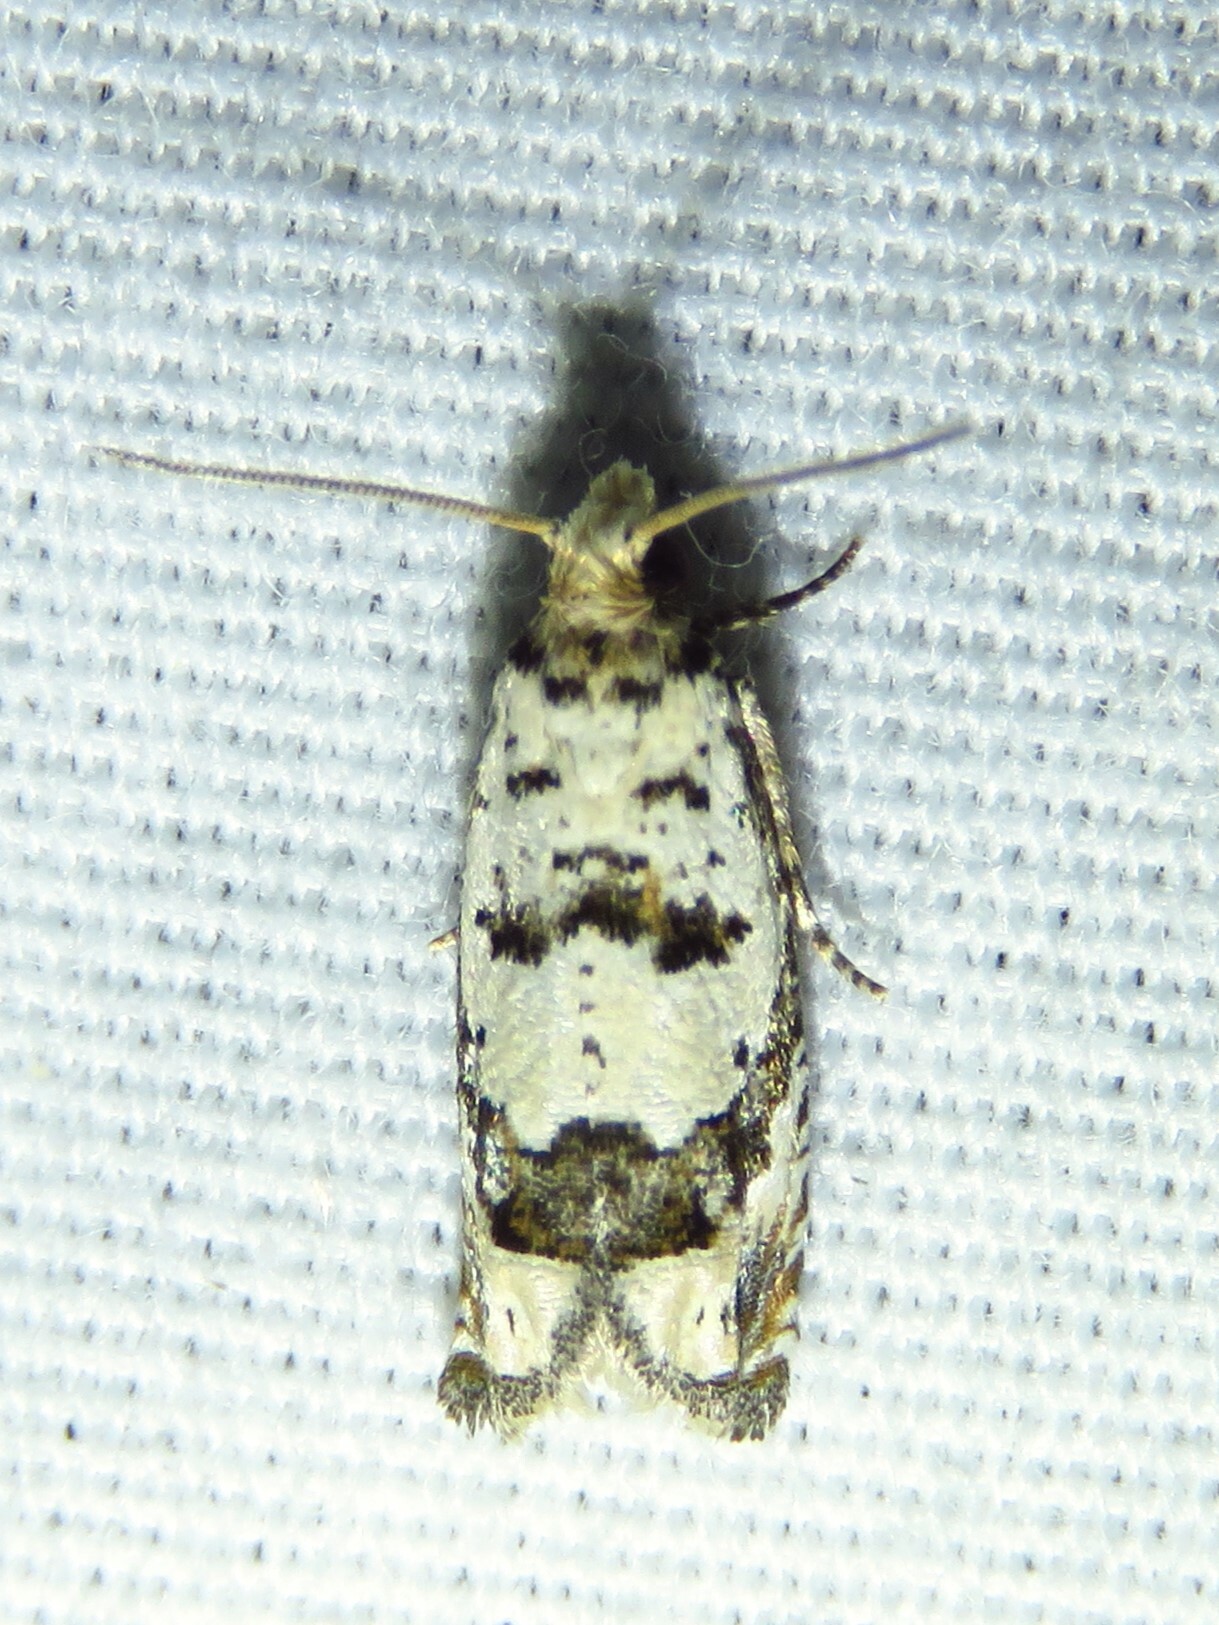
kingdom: Animalia
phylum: Arthropoda
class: Insecta
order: Lepidoptera
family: Tortricidae
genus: Pelochrista
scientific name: Pelochrista matutina
